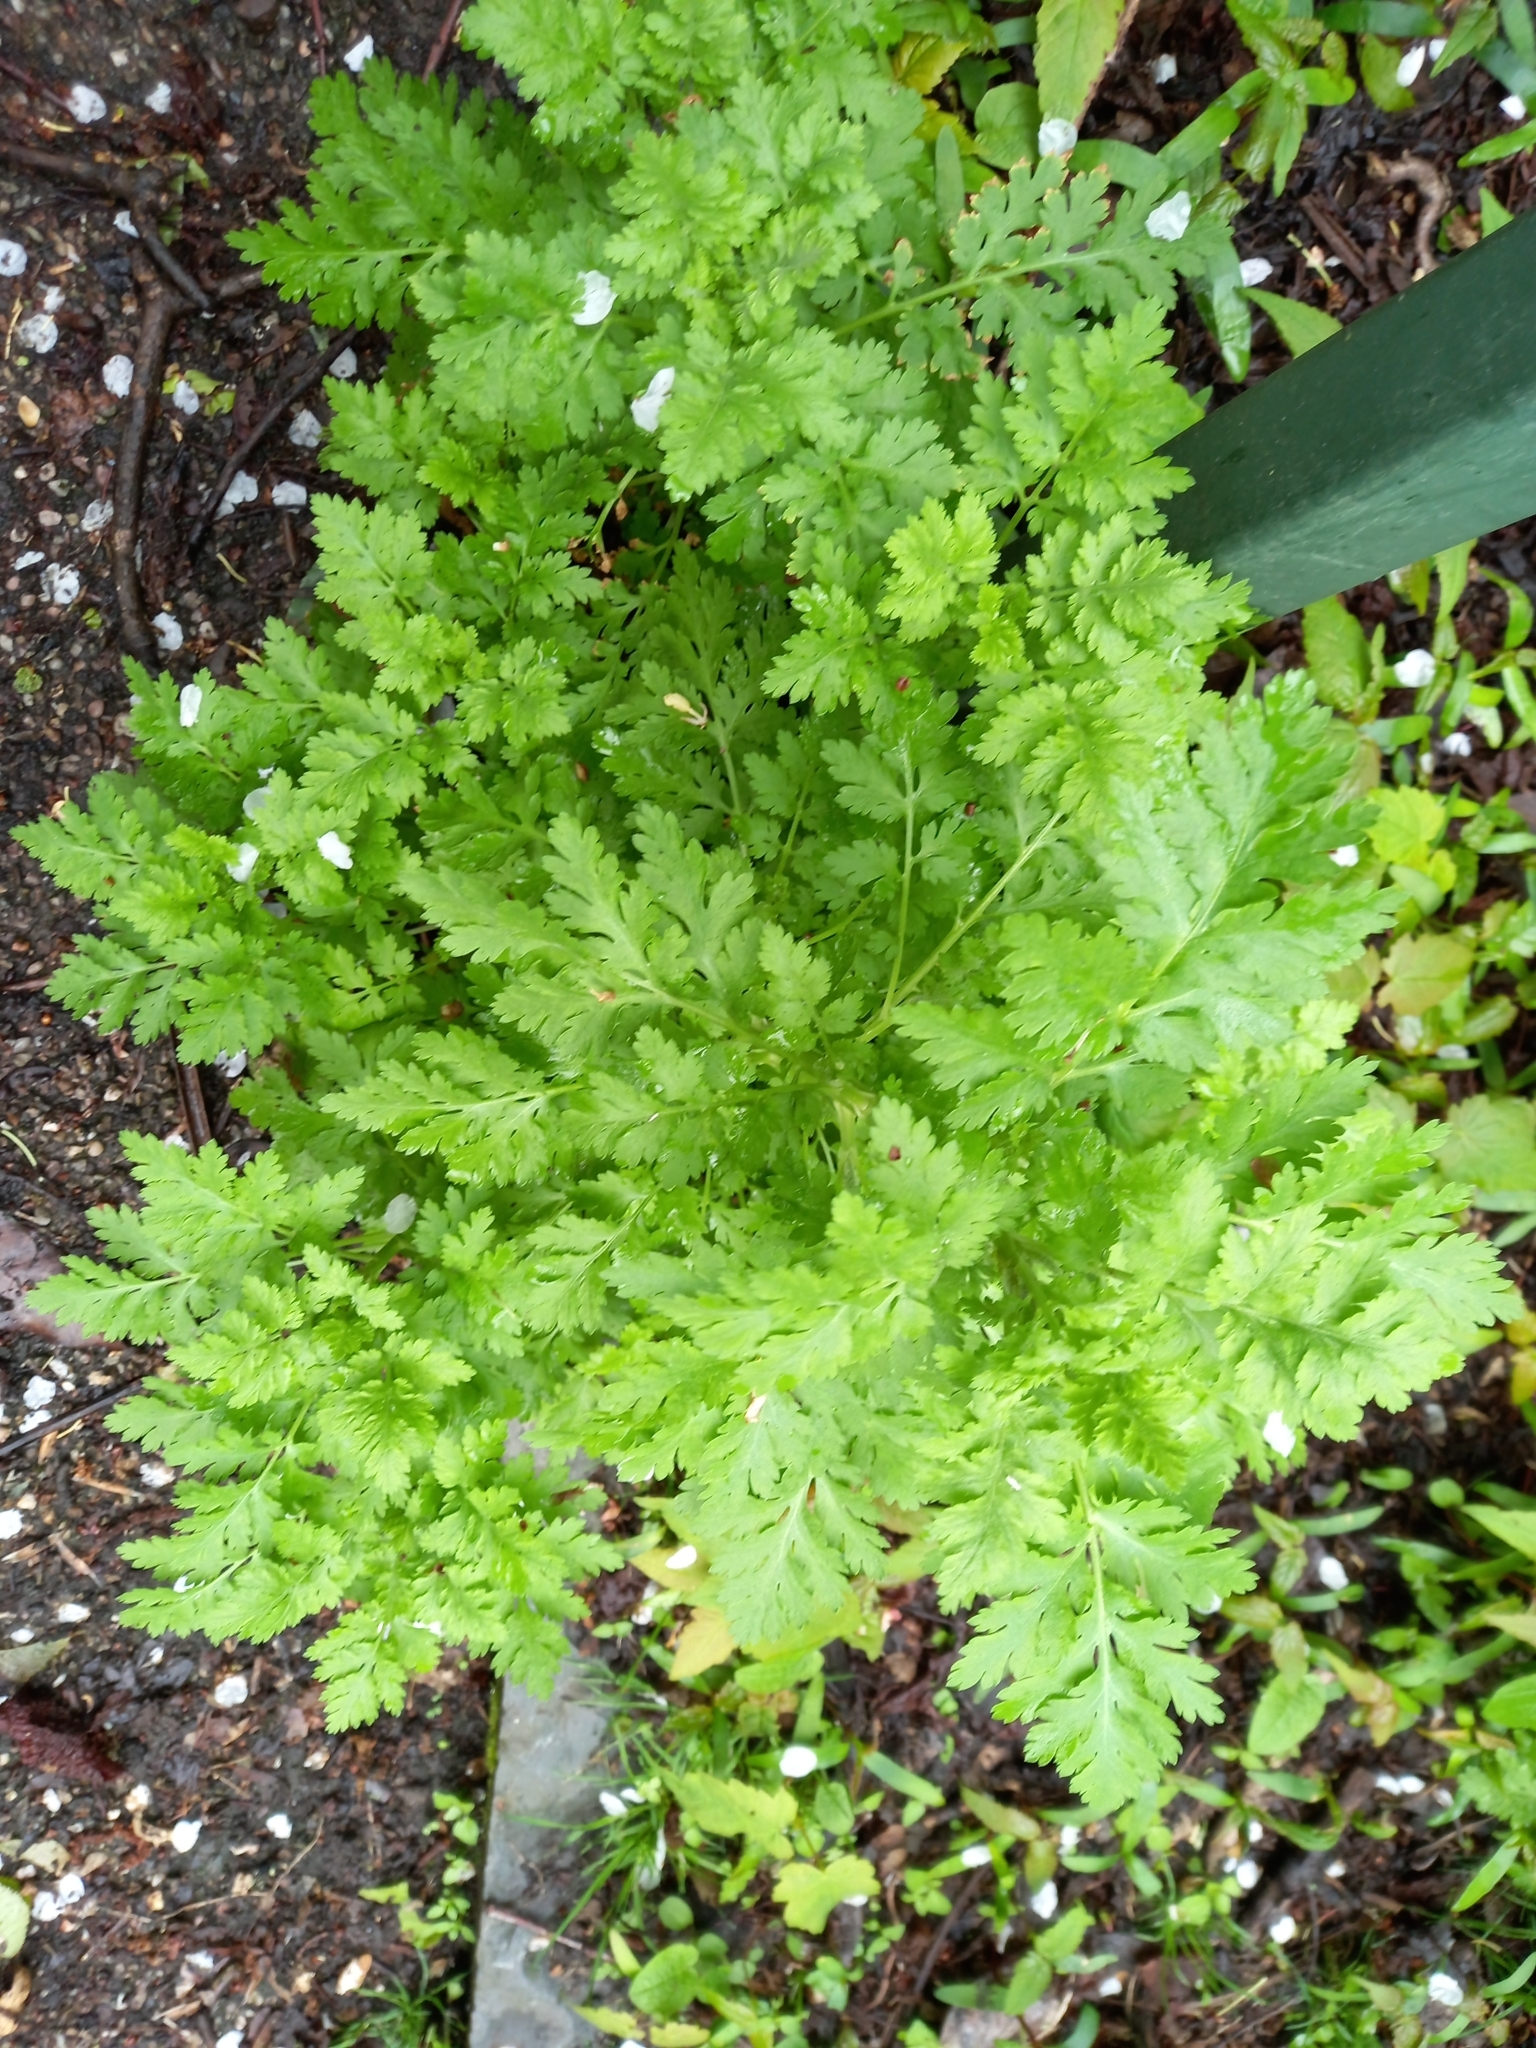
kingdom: Plantae
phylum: Tracheophyta
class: Magnoliopsida
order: Asterales
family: Asteraceae
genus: Tanacetum
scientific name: Tanacetum parthenium
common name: Feverfew
